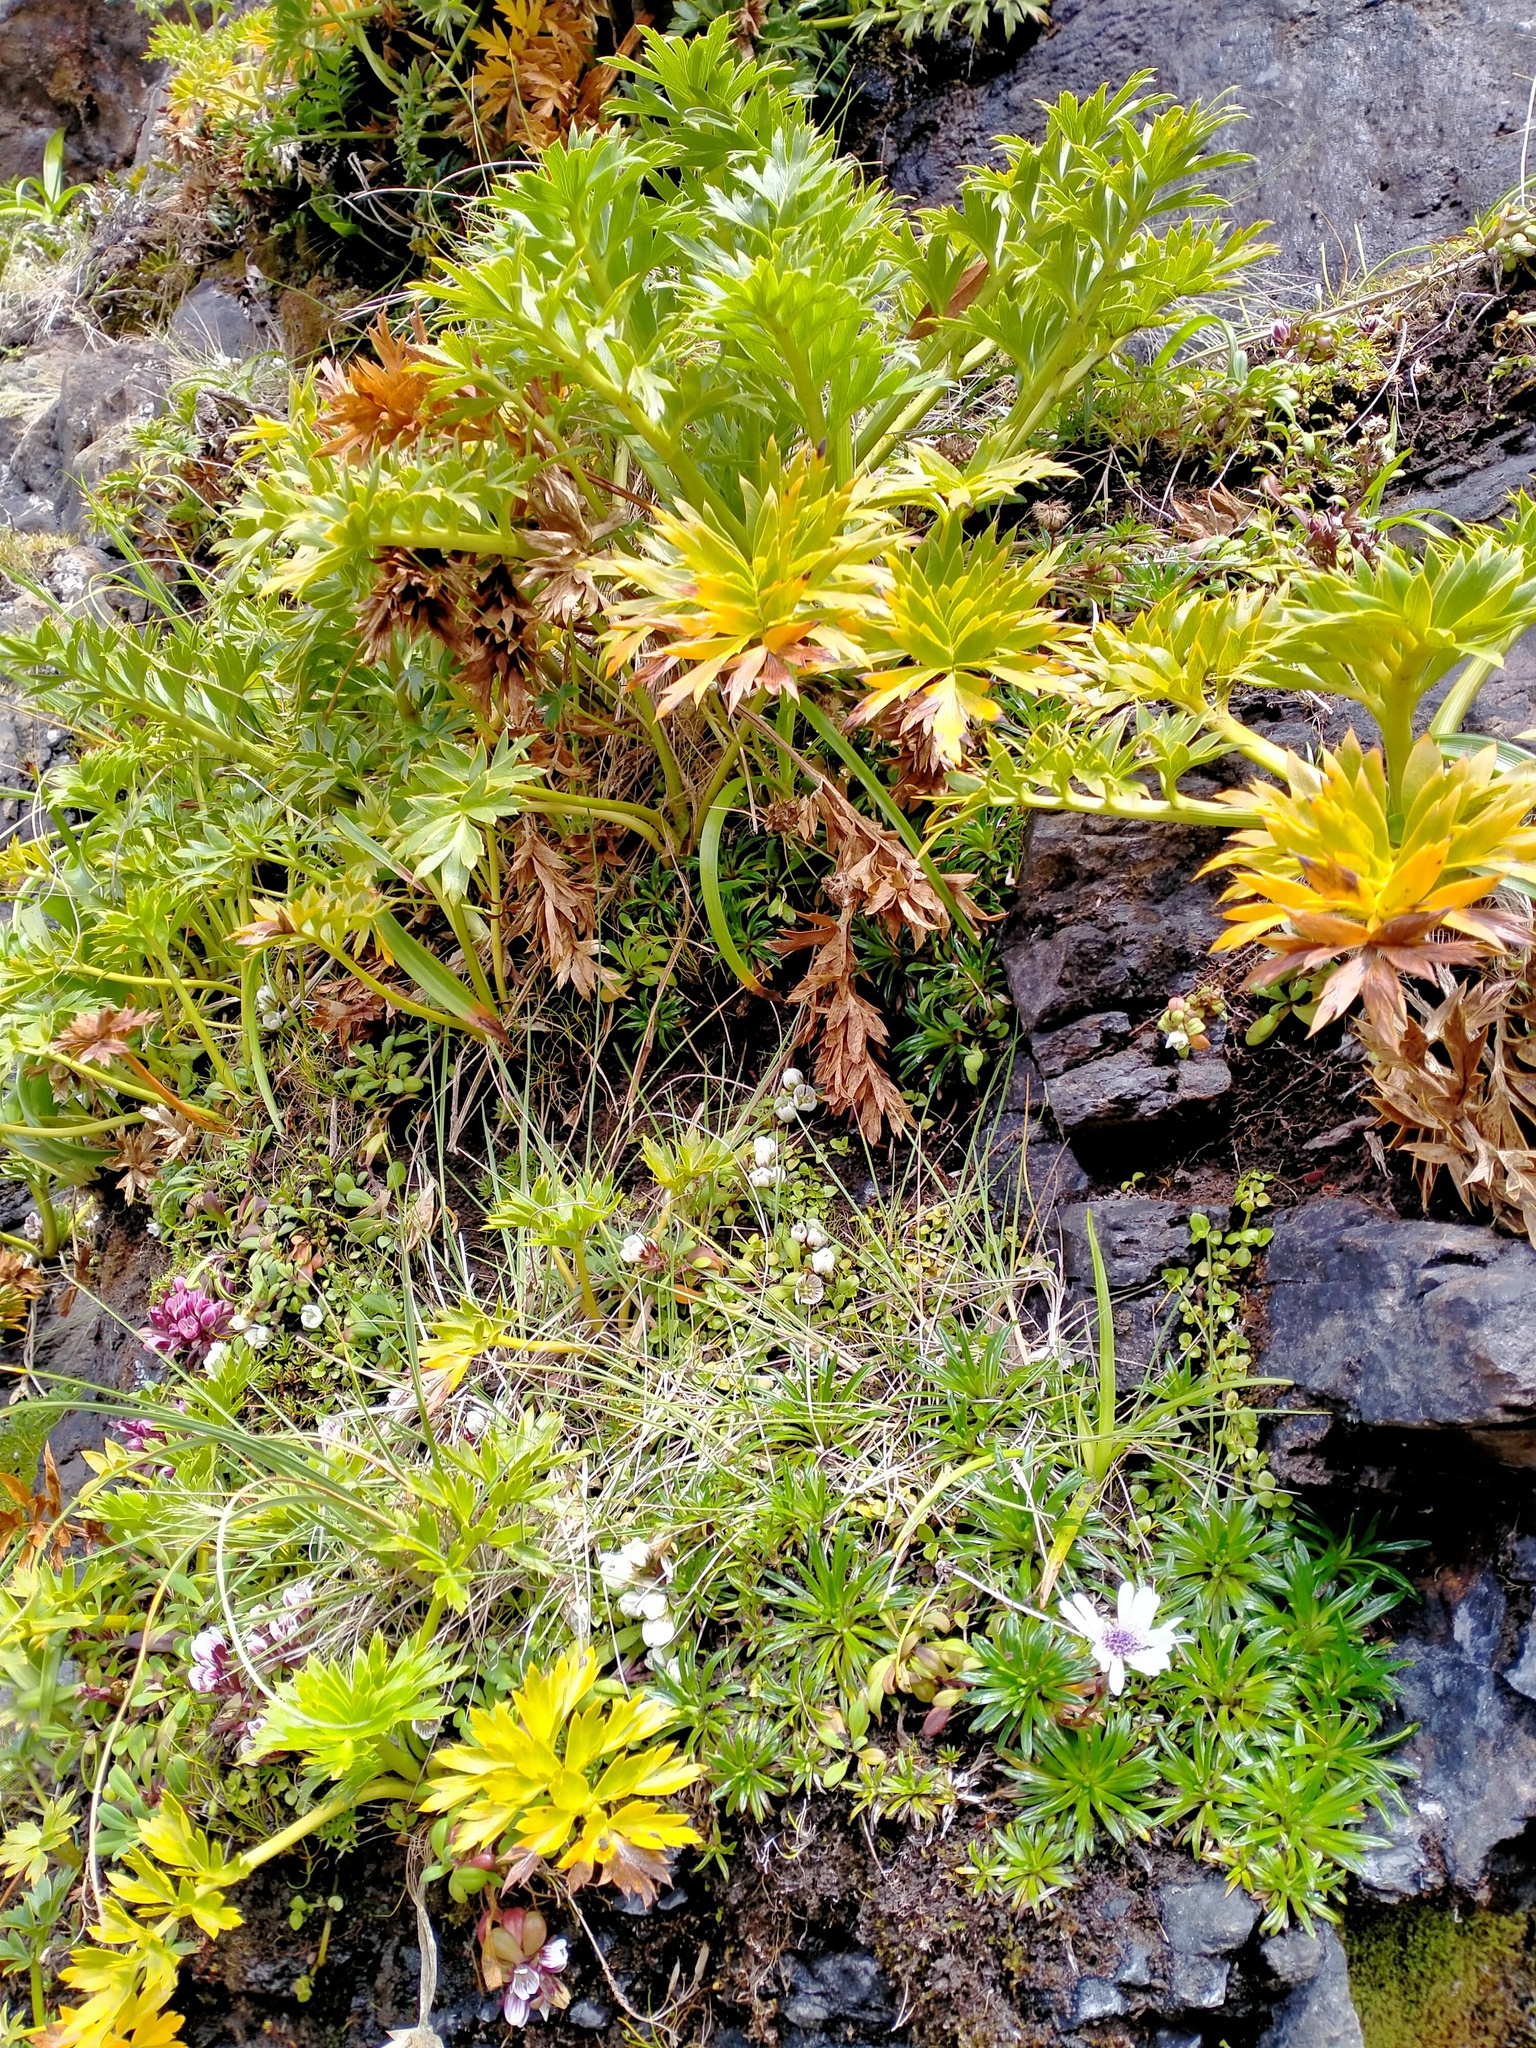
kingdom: Plantae
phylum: Tracheophyta
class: Magnoliopsida
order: Apiales
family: Apiaceae
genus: Anisotome
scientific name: Anisotome latifolia
